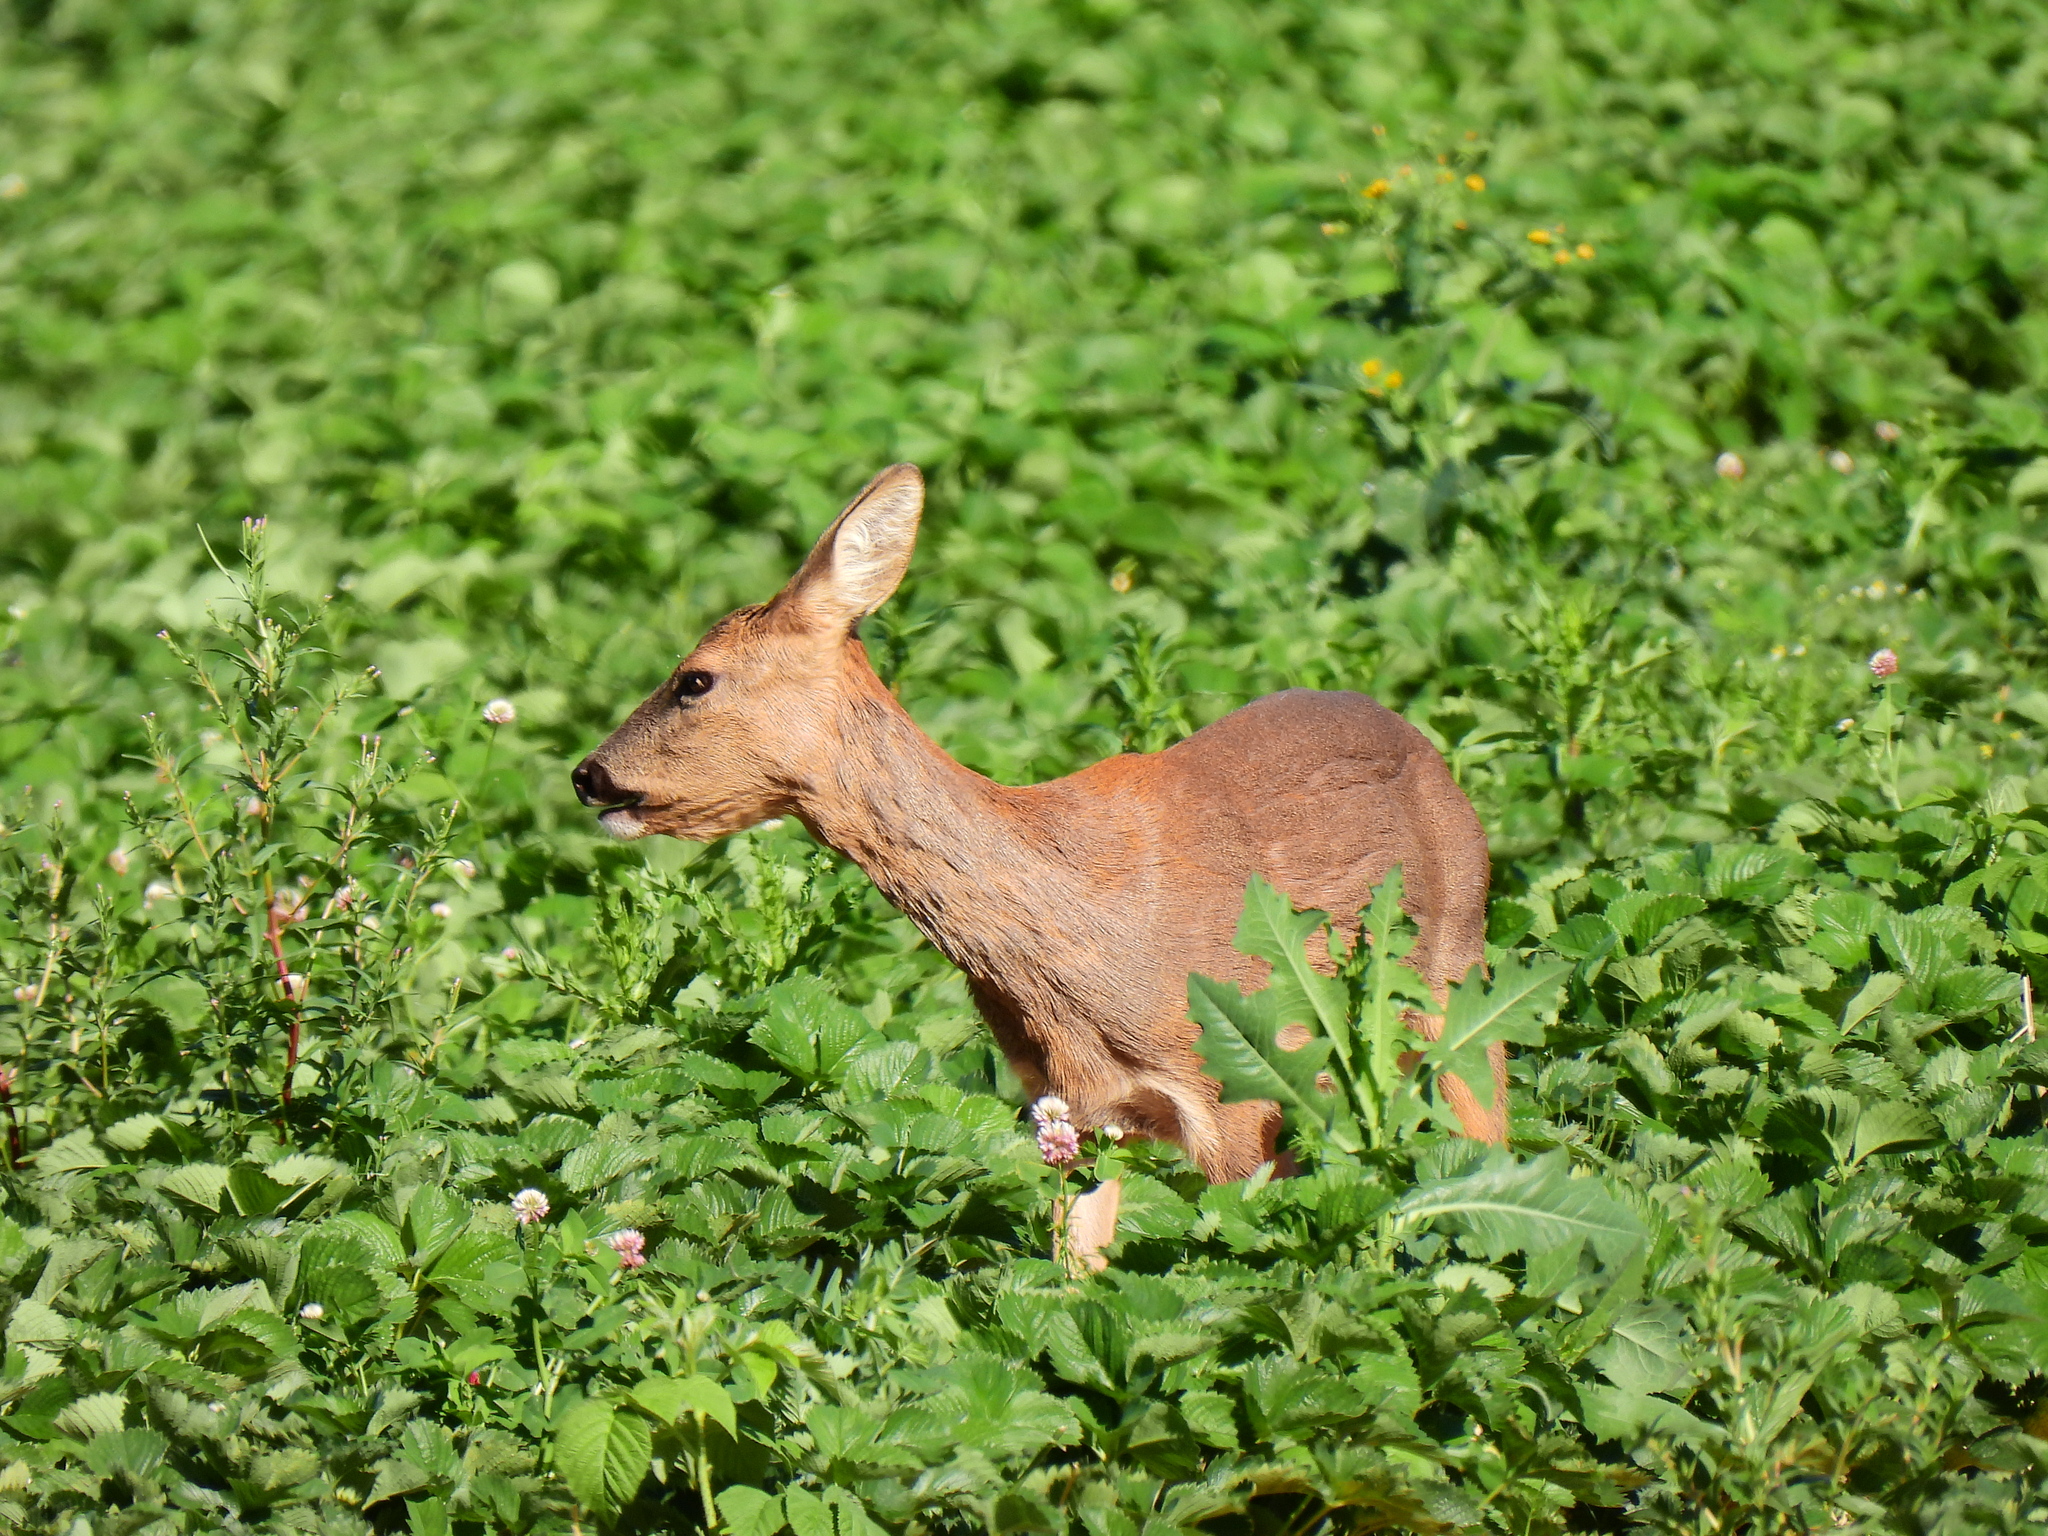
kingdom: Animalia
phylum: Chordata
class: Mammalia
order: Artiodactyla
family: Cervidae
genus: Capreolus
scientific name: Capreolus capreolus
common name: Western roe deer
